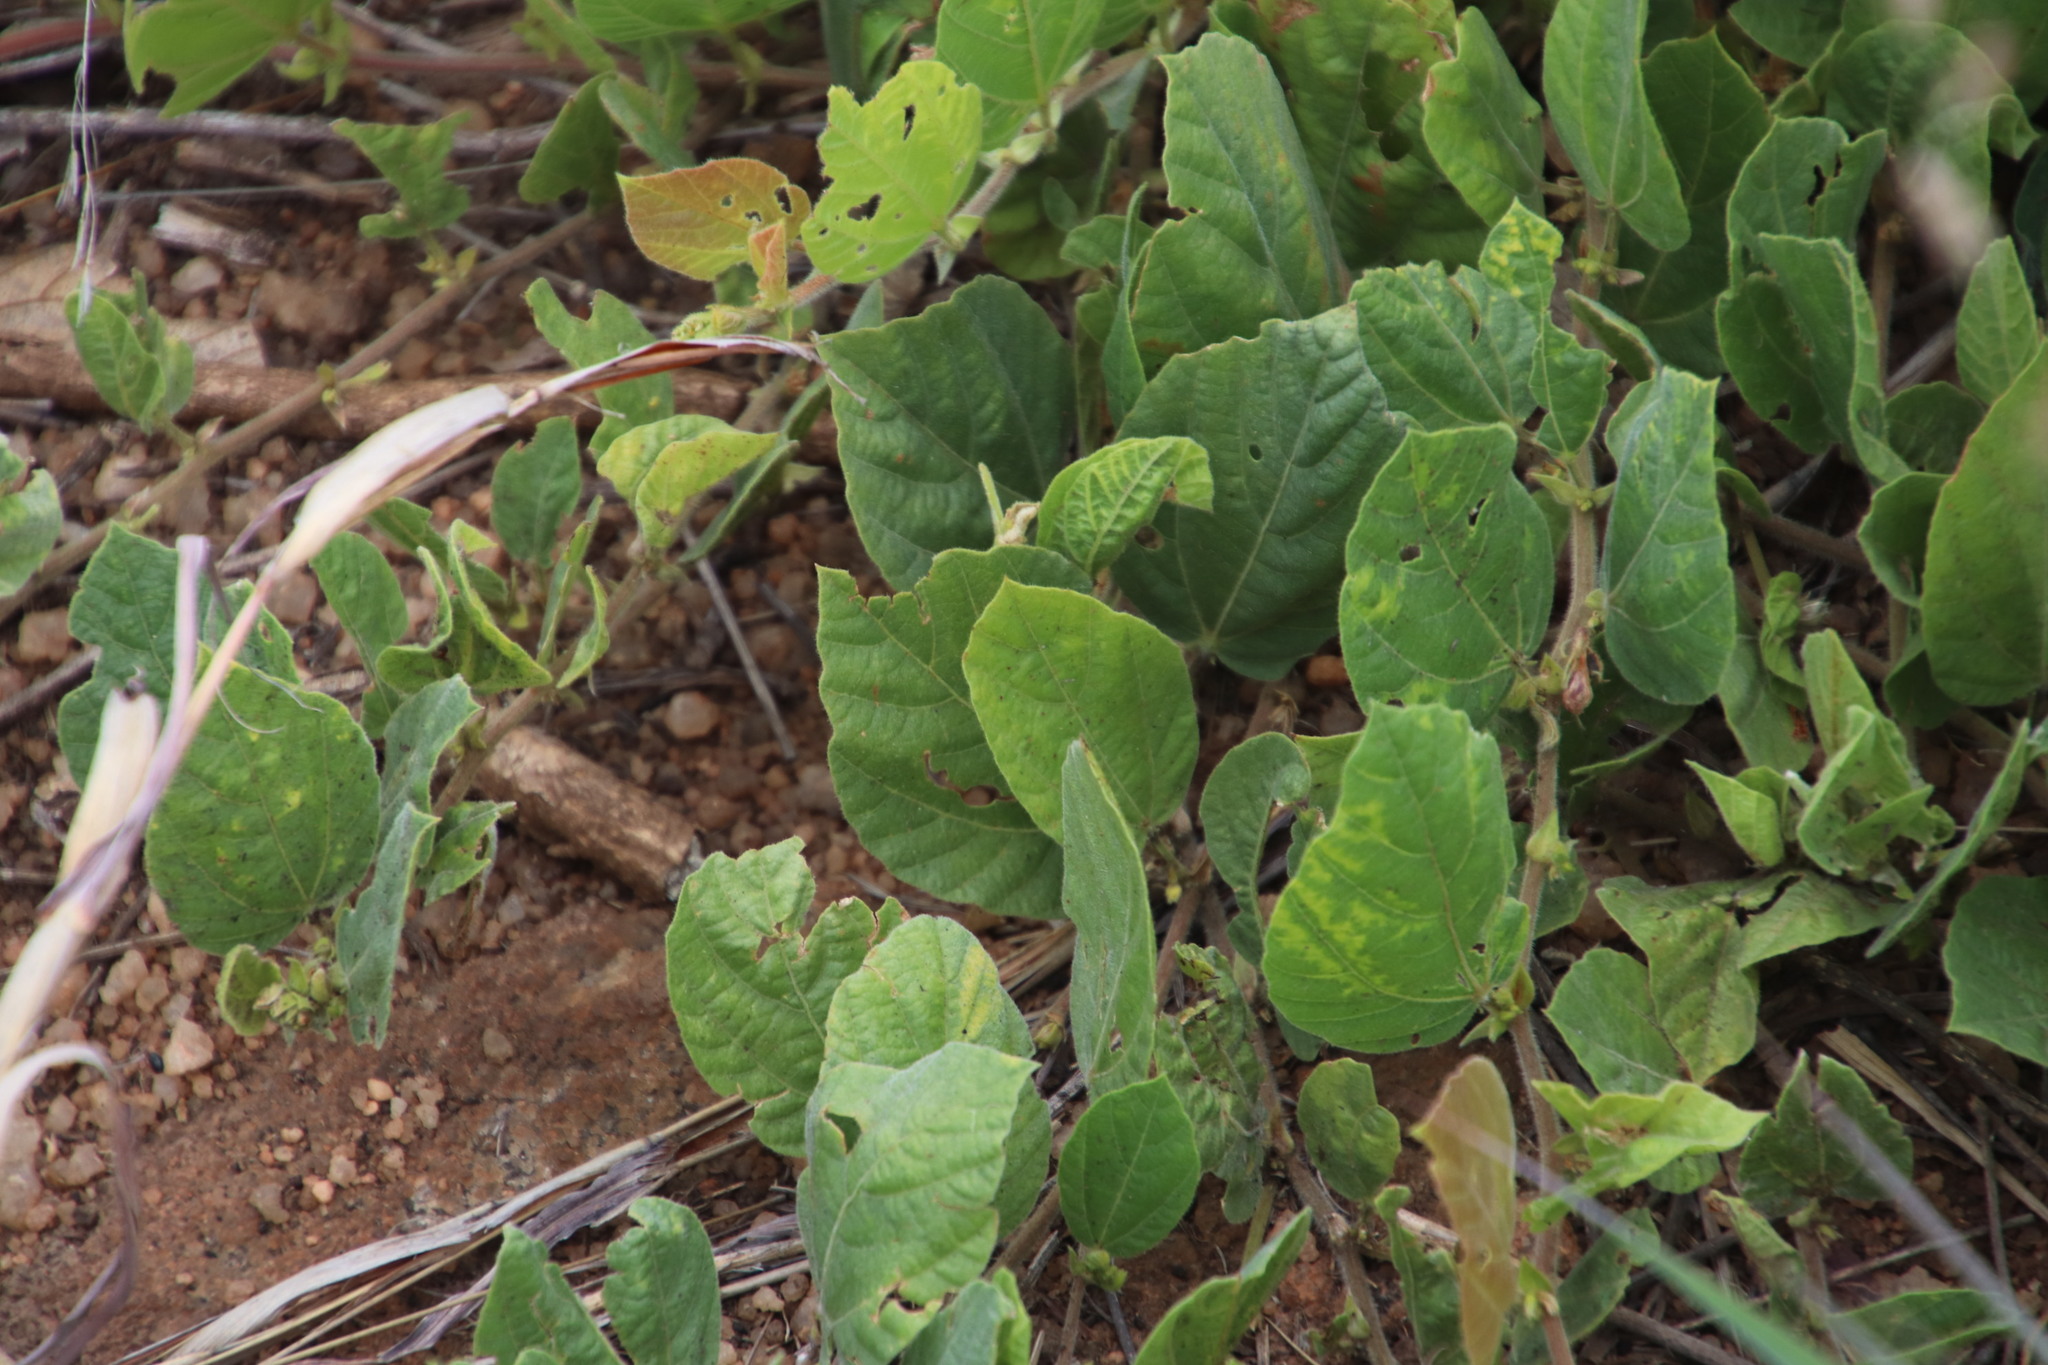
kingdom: Plantae
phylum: Tracheophyta
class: Magnoliopsida
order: Fabales
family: Fabaceae
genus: Rhynchosia
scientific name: Rhynchosia monophylla
